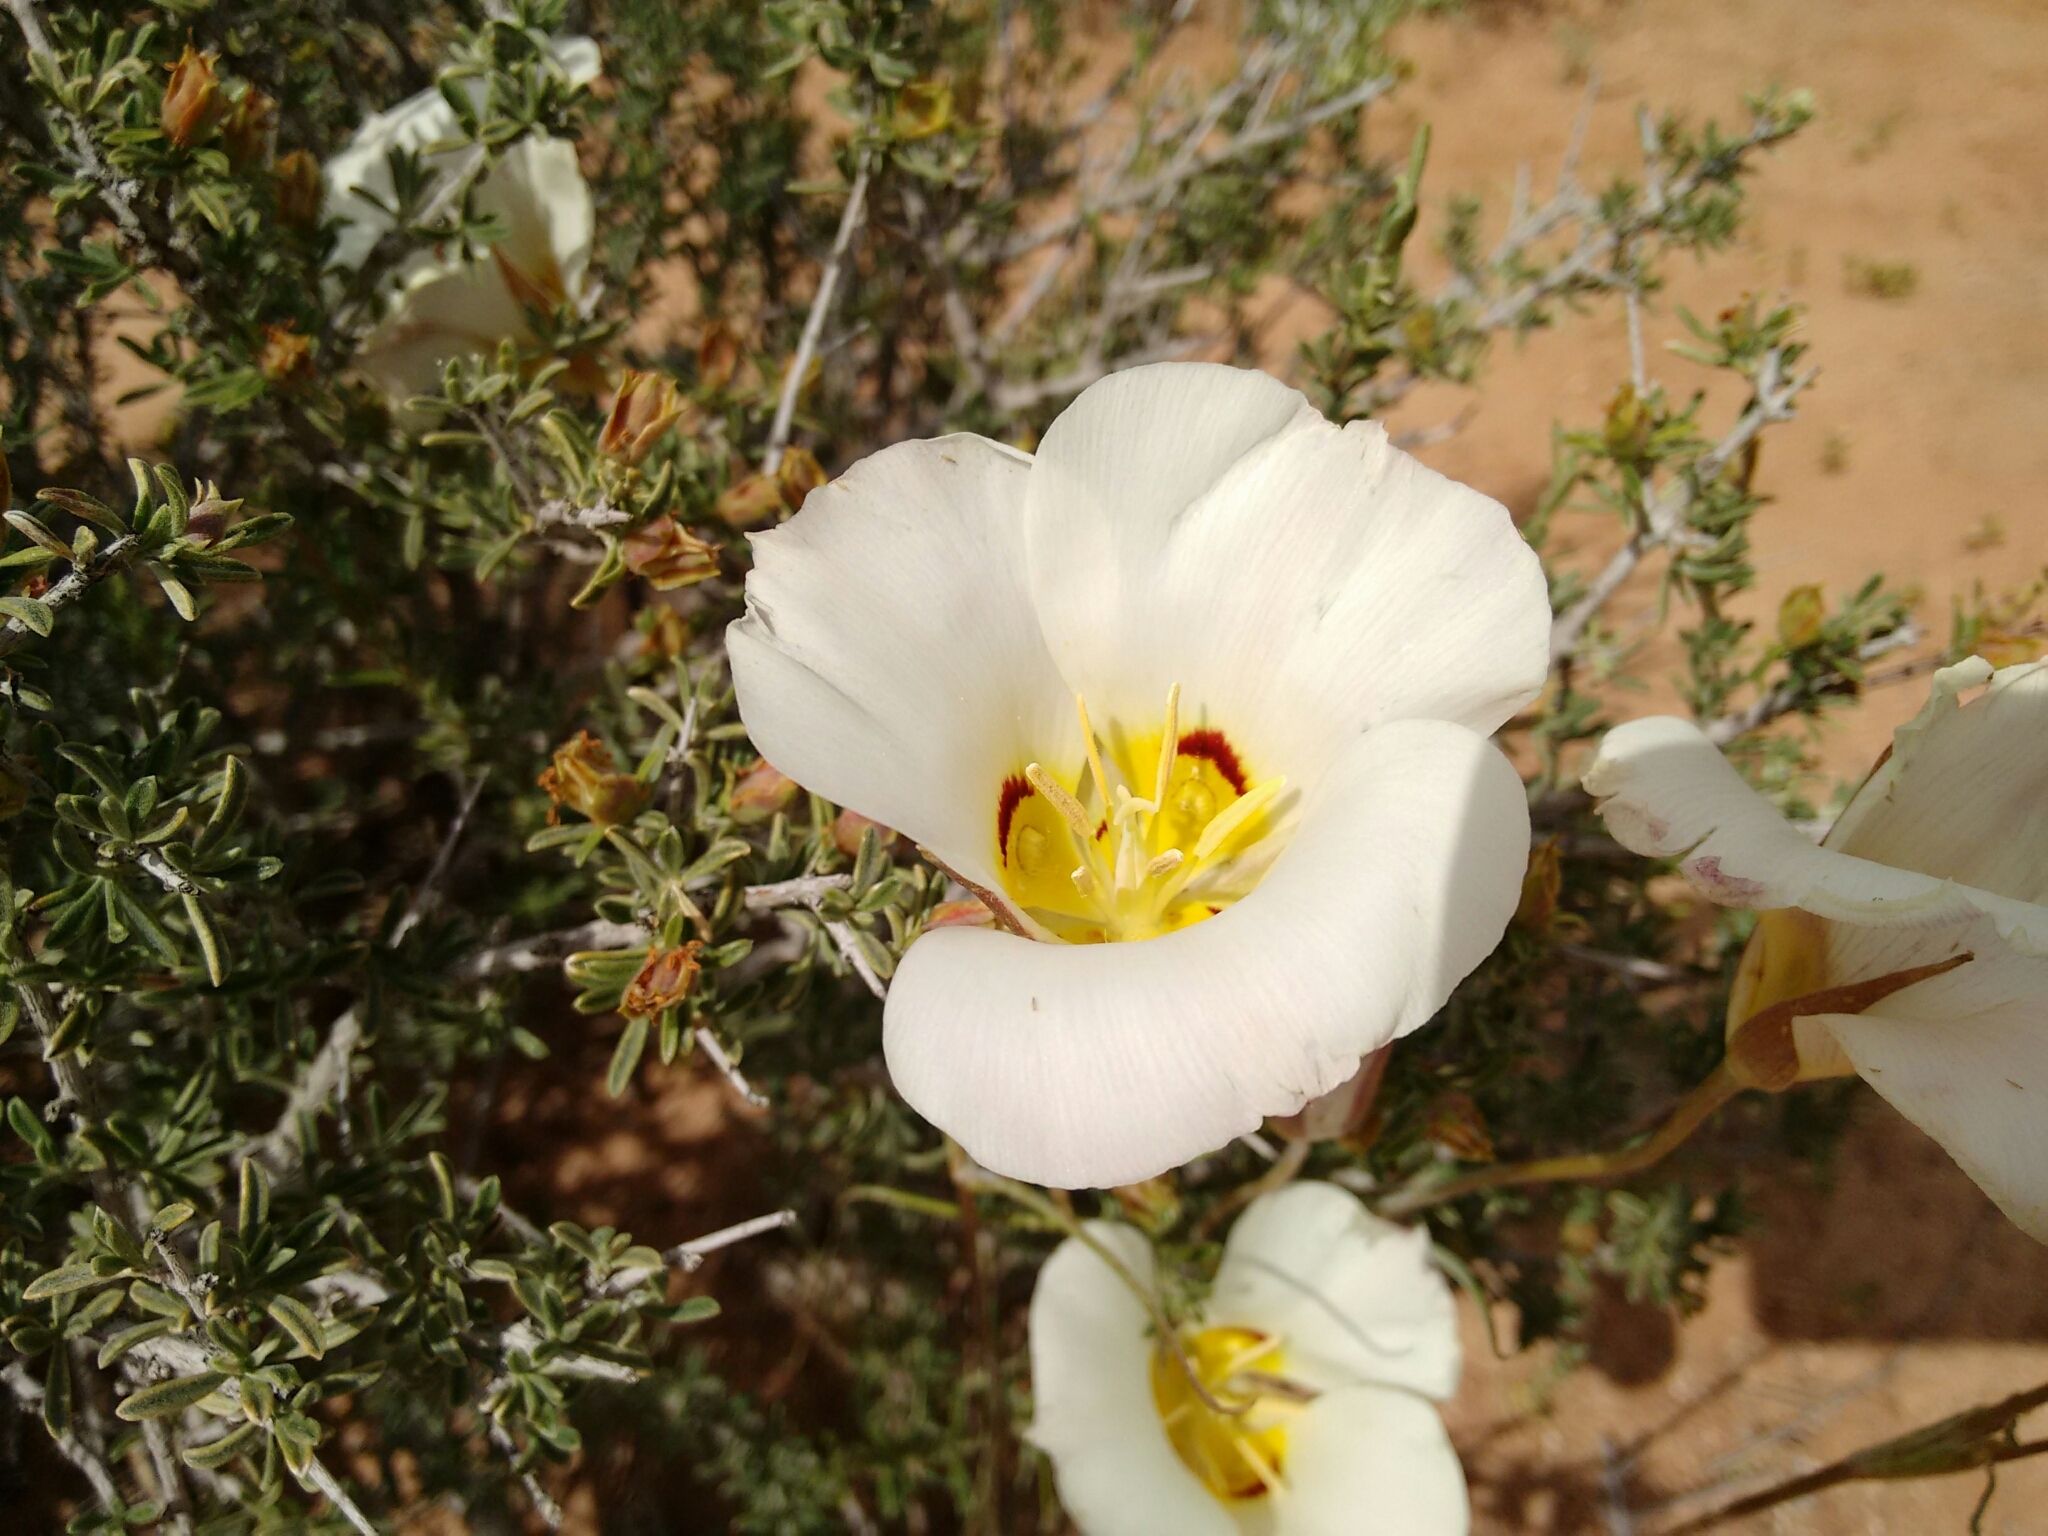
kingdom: Plantae
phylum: Tracheophyta
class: Liliopsida
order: Liliales
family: Liliaceae
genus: Calochortus
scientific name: Calochortus nuttallii
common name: Sego-lily
